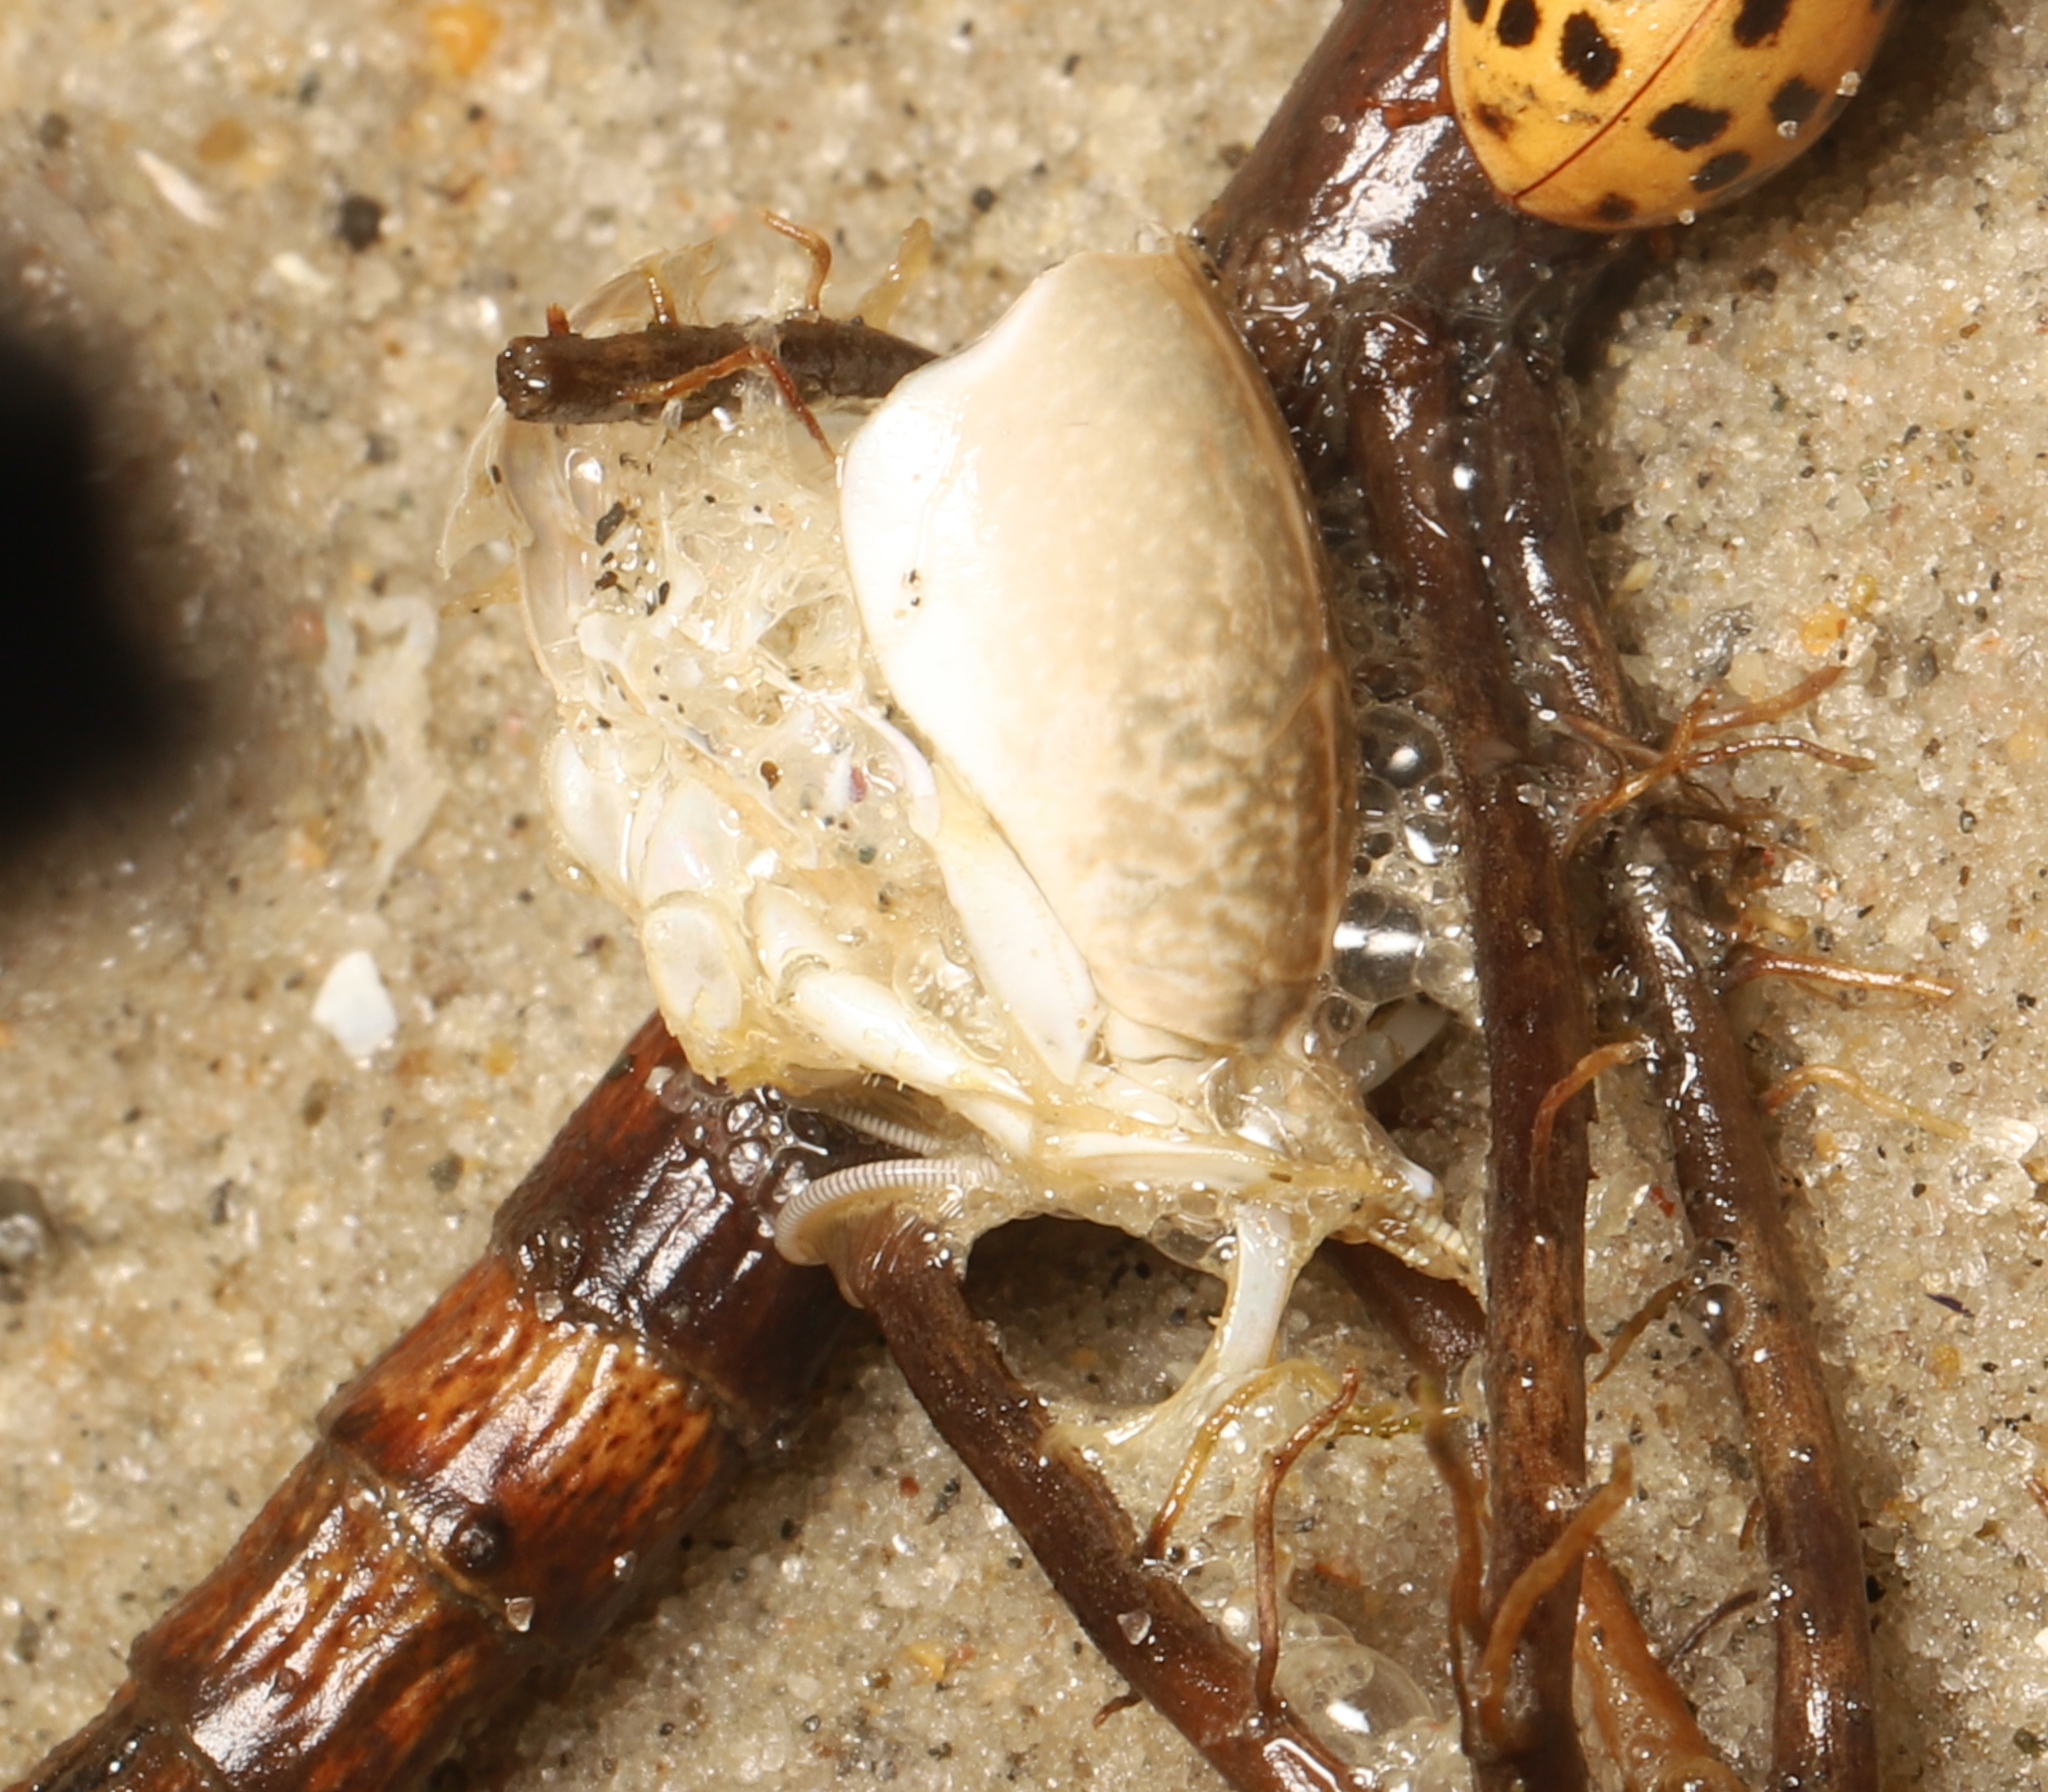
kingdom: Animalia
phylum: Arthropoda
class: Malacostraca
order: Decapoda
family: Hippidae
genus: Emerita
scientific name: Emerita talpoida
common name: Atlantic sand crab
